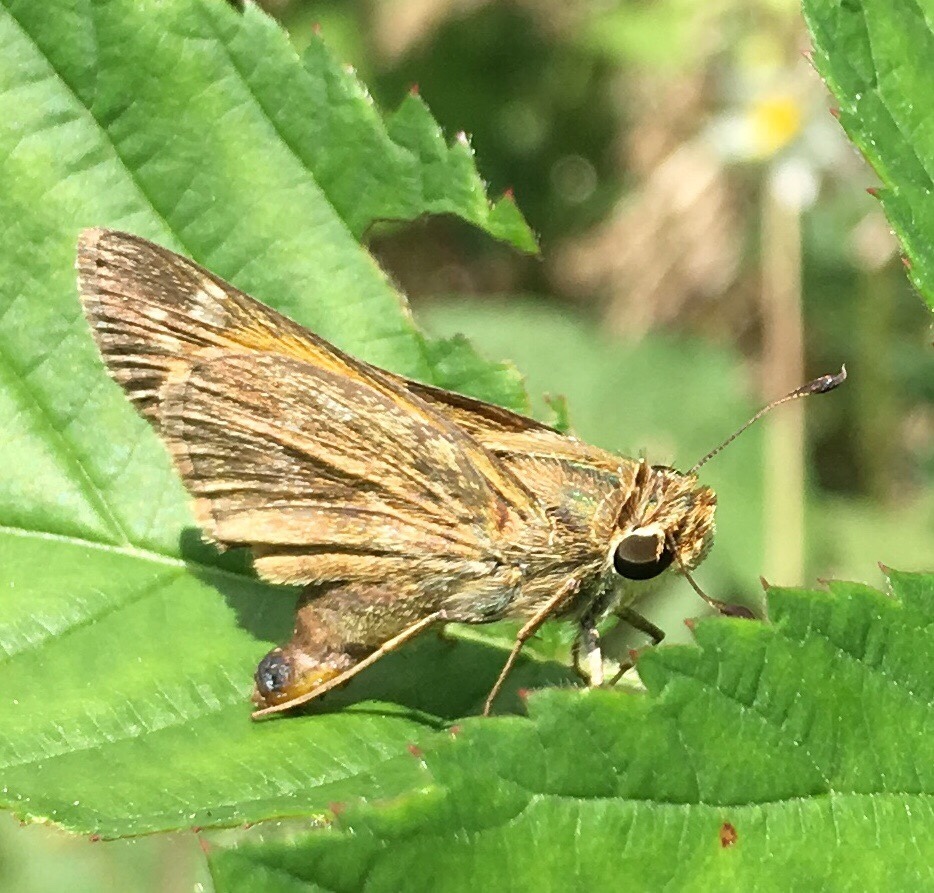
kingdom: Animalia
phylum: Arthropoda
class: Insecta
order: Lepidoptera
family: Hesperiidae
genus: Atalopedes
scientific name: Atalopedes
